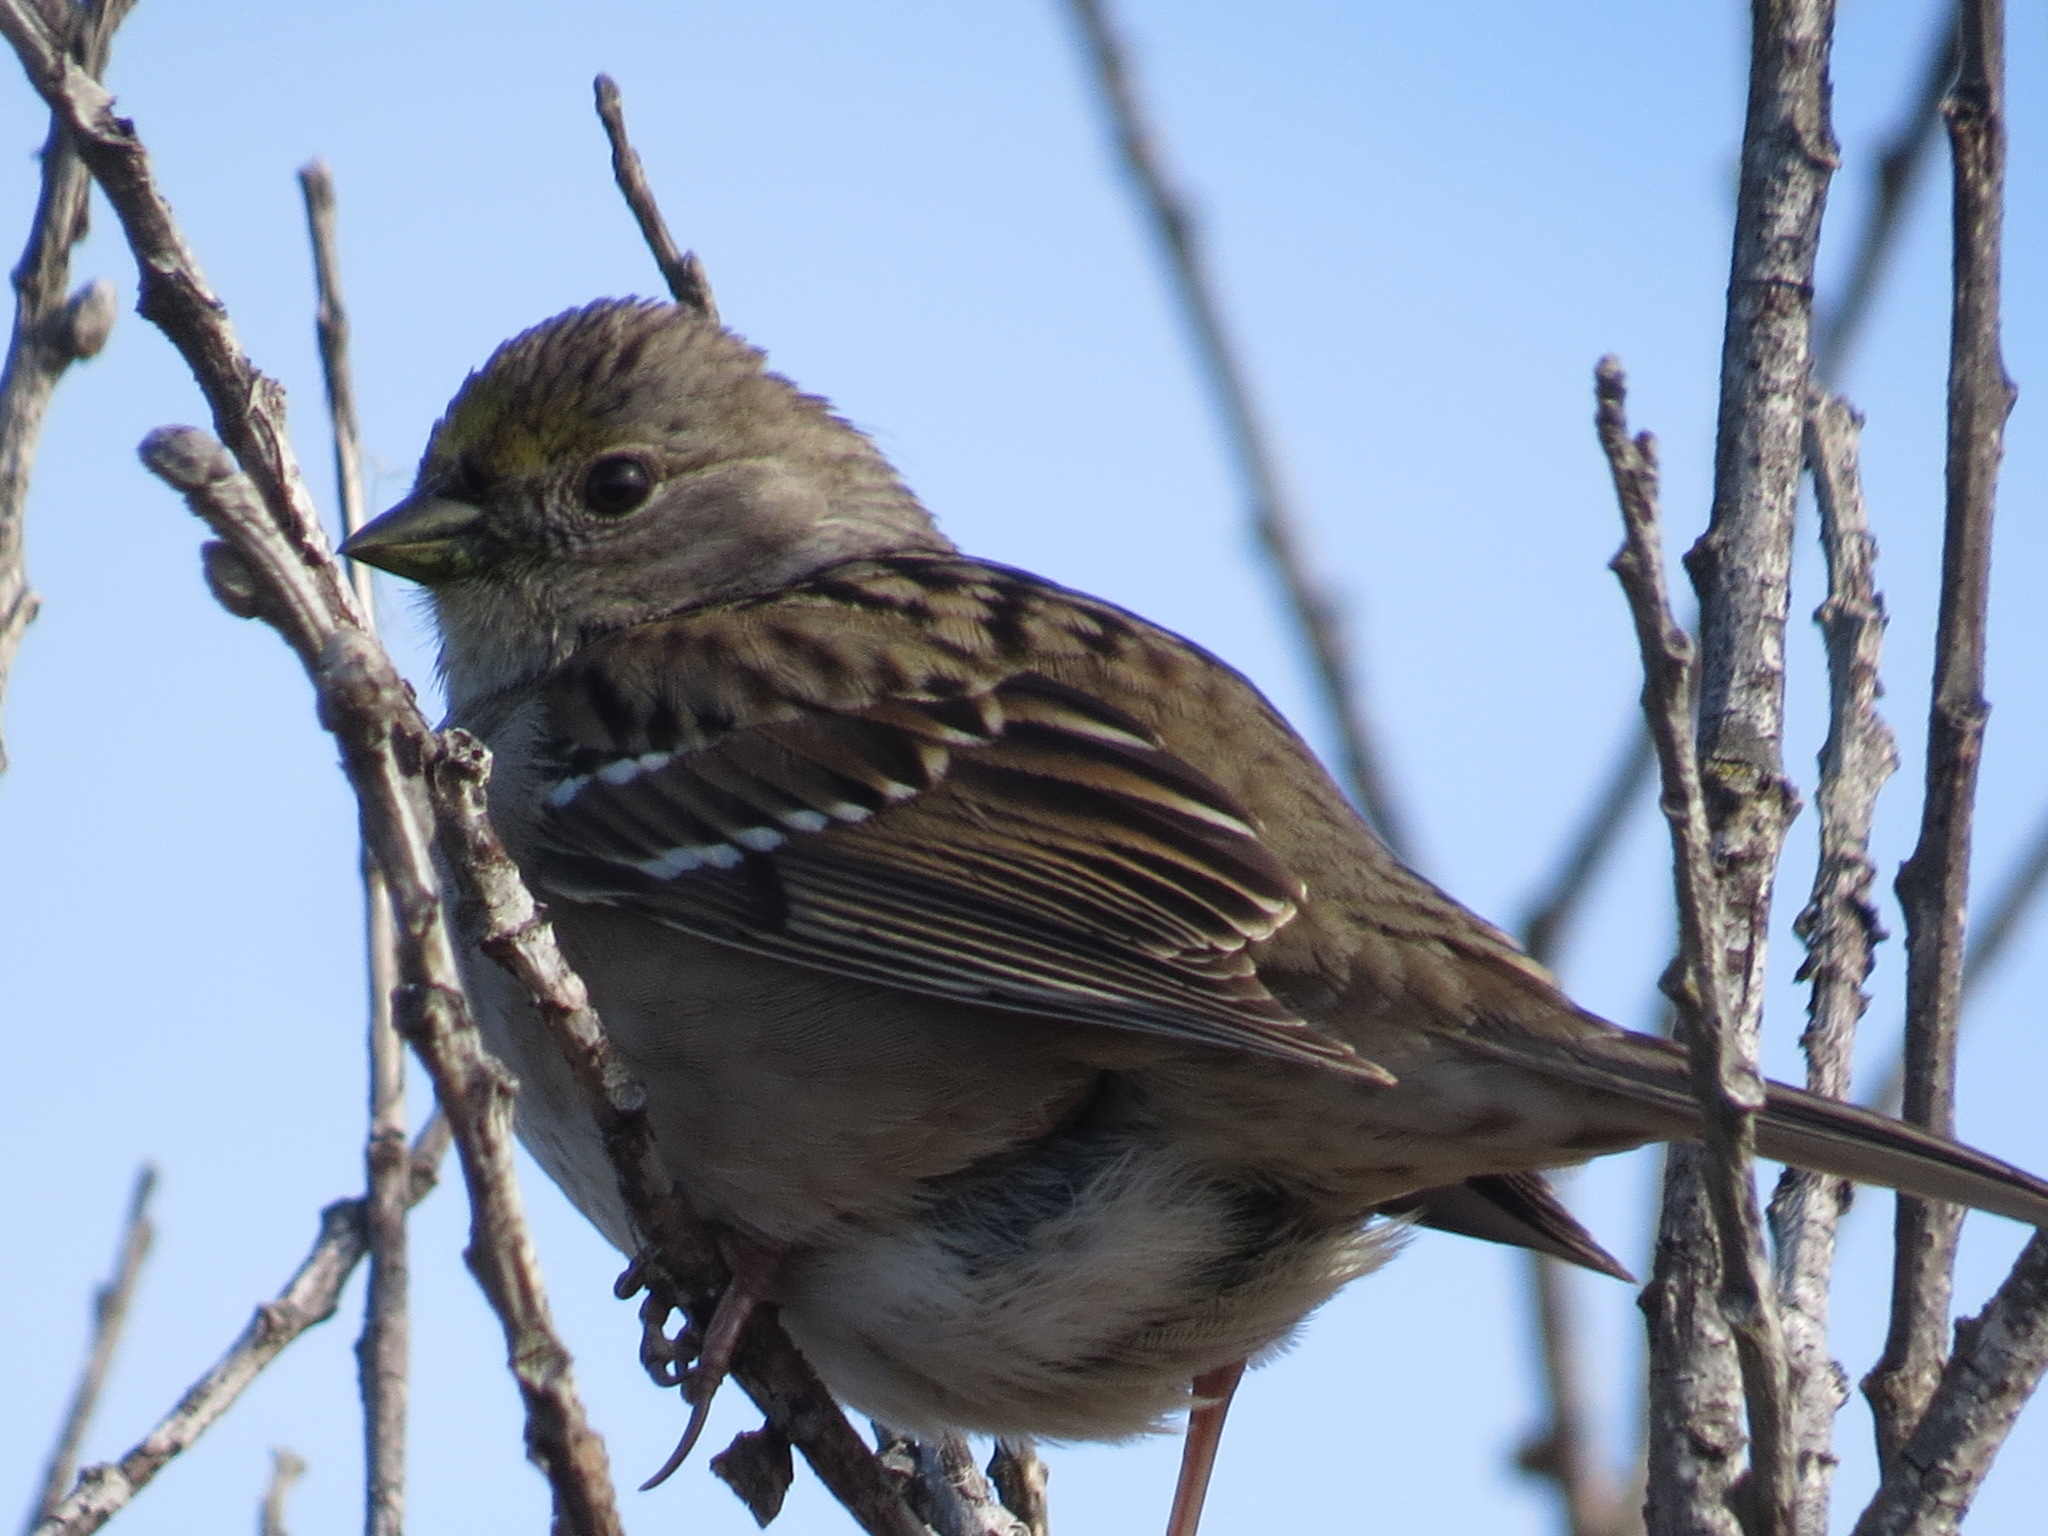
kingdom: Animalia
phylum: Chordata
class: Aves
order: Passeriformes
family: Passerellidae
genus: Zonotrichia
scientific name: Zonotrichia atricapilla
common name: Golden-crowned sparrow
